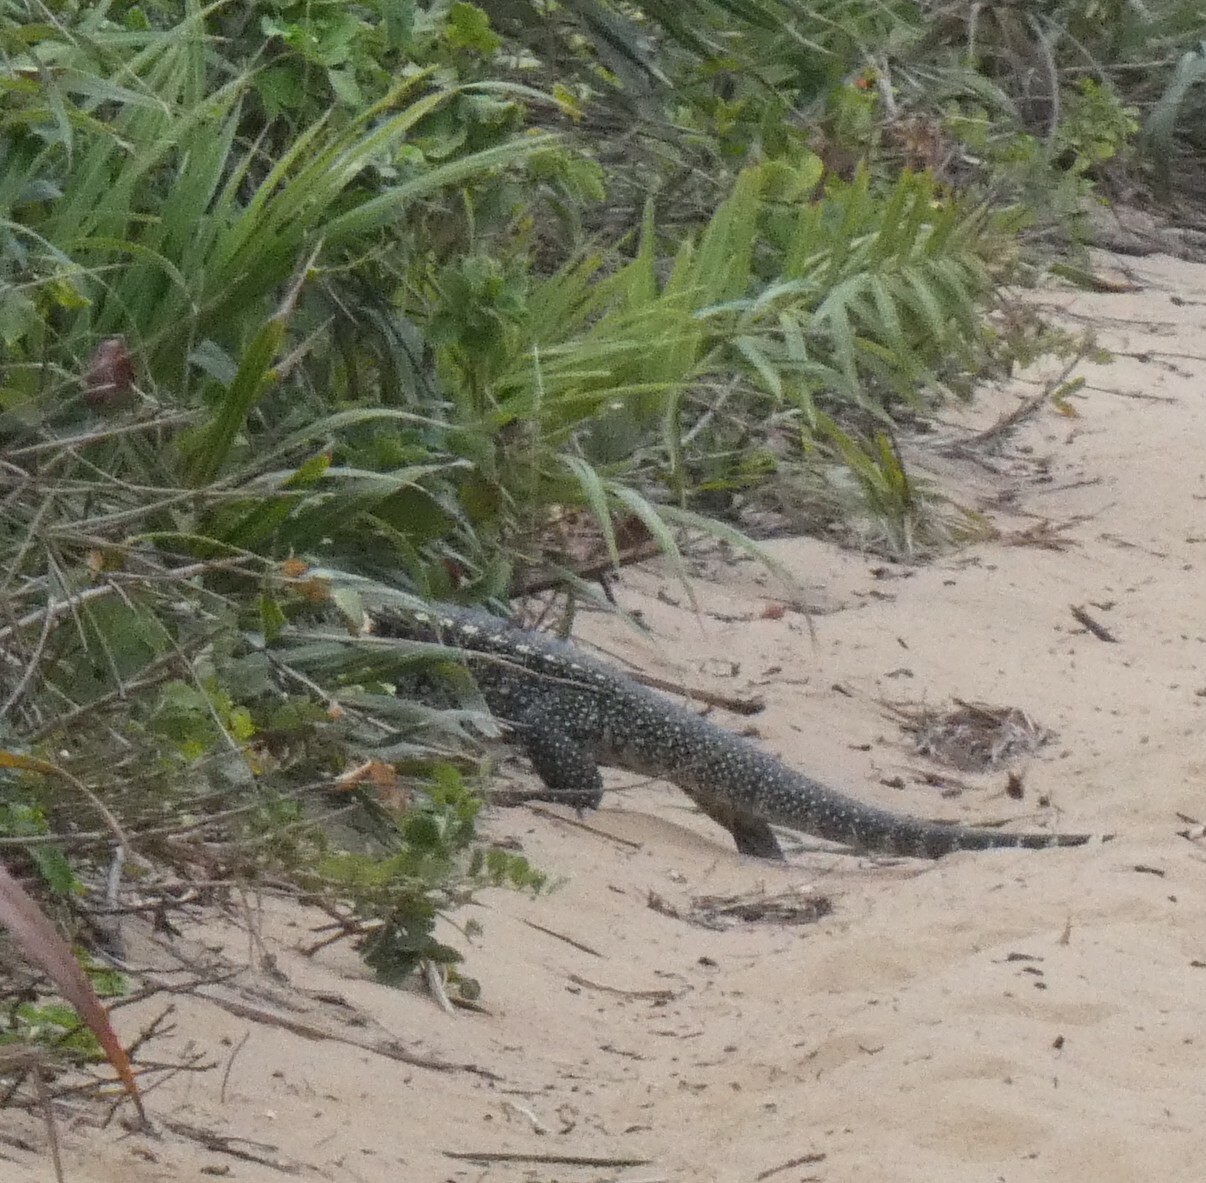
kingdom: Animalia
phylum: Chordata
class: Squamata
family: Teiidae
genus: Salvator
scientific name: Salvator merianae
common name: Argentine black and white tegu
